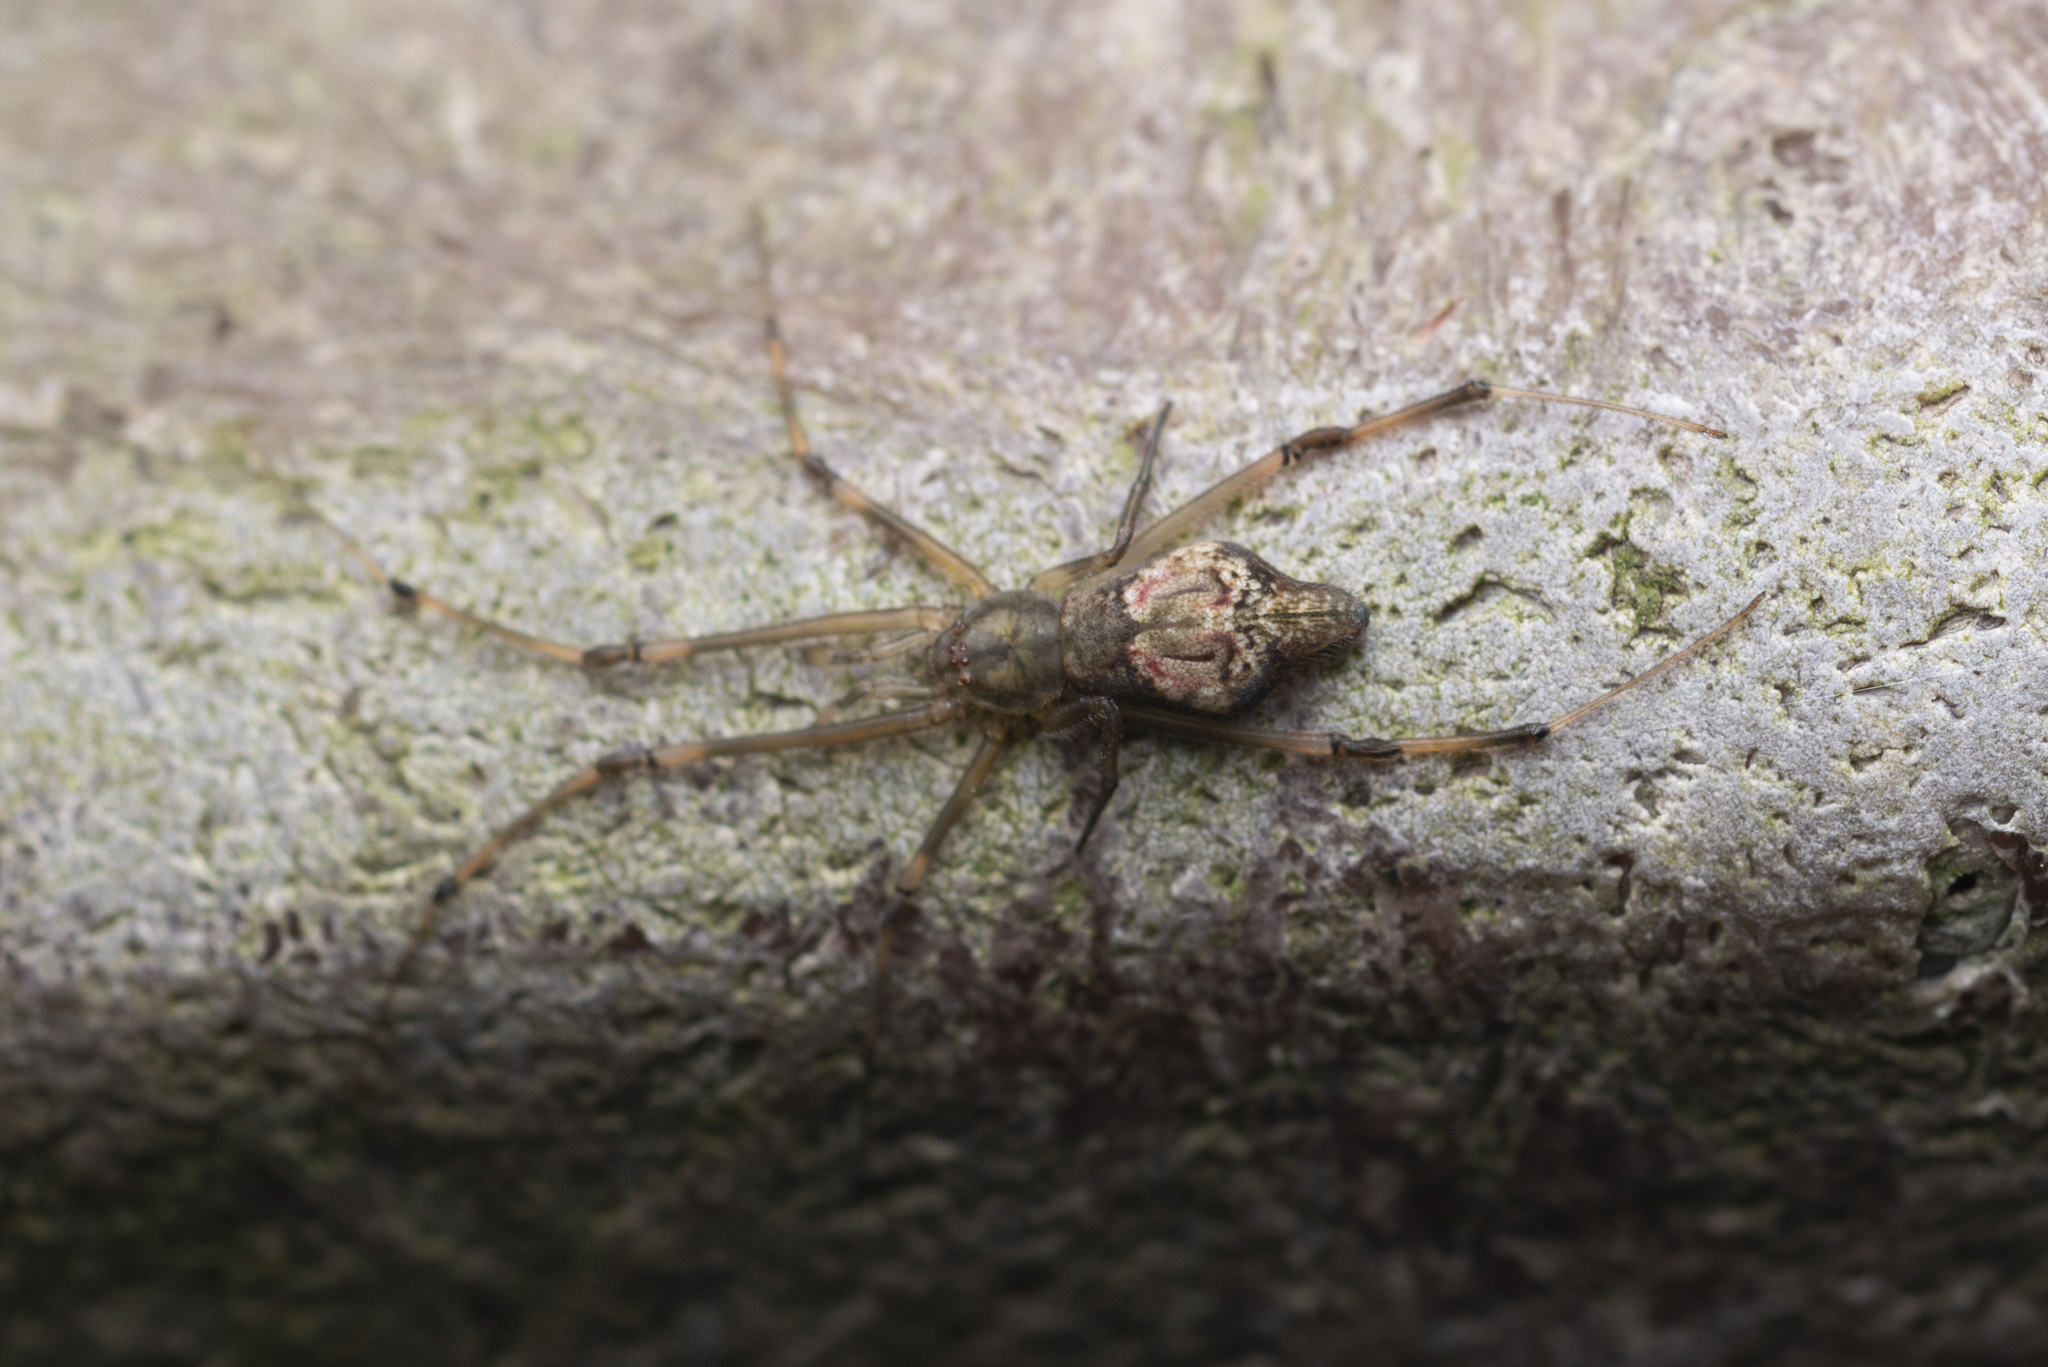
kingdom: Animalia
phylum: Arthropoda
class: Arachnida
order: Araneae
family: Theridiidae
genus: Moneta
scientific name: Moneta mirabilis
